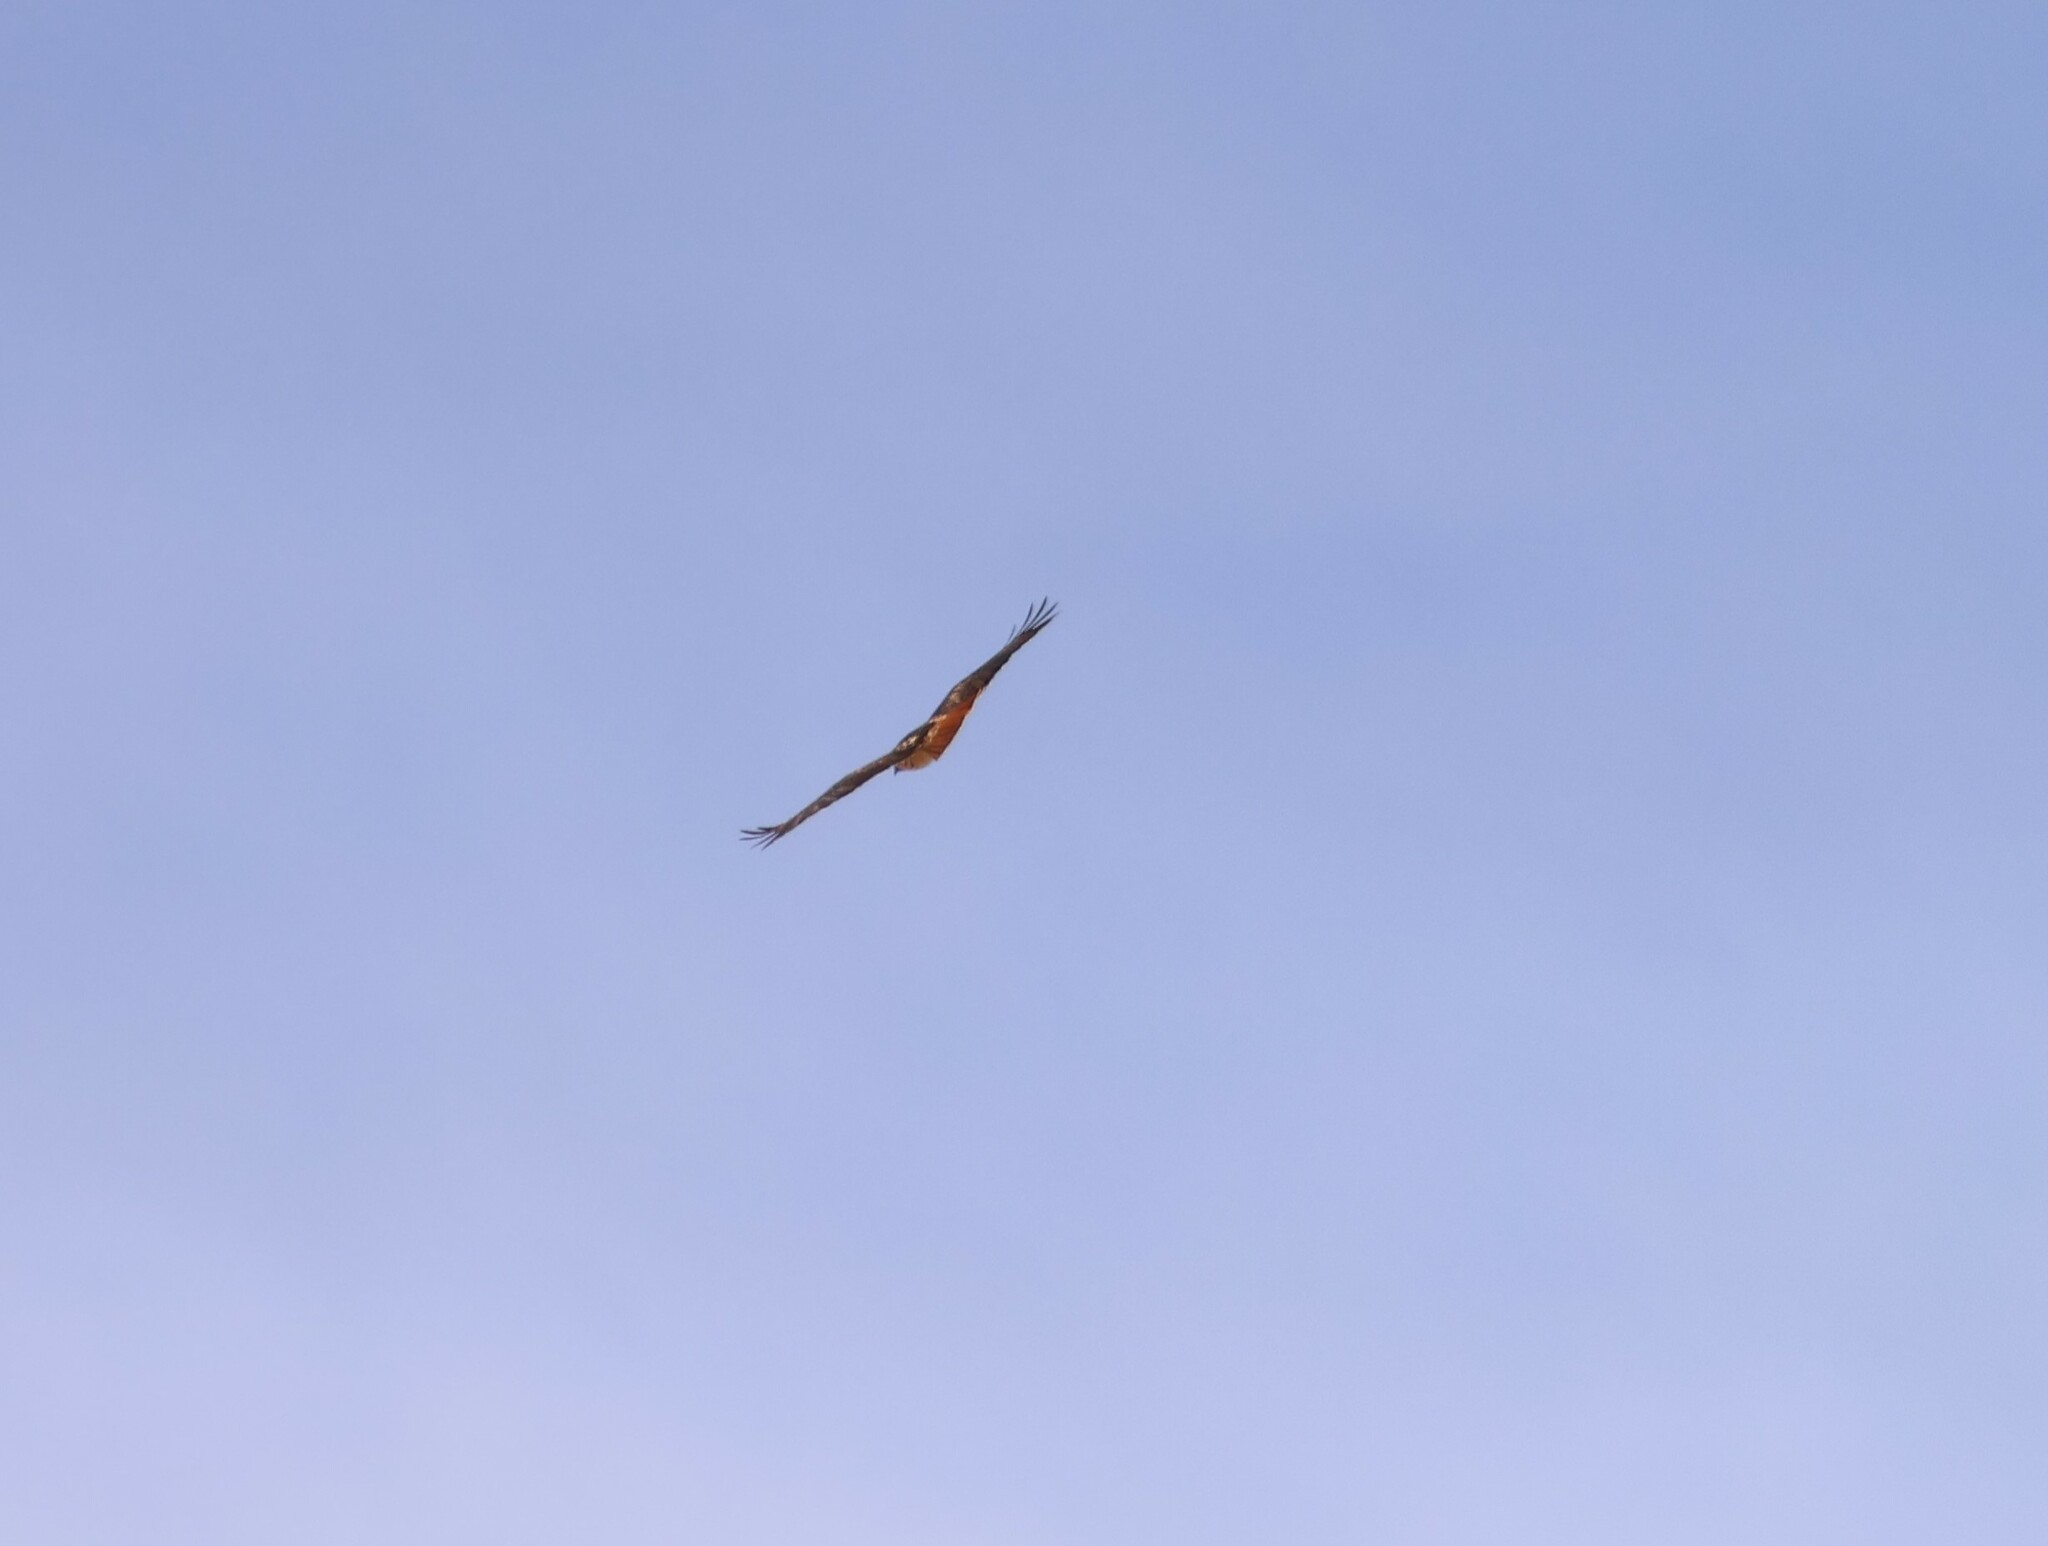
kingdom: Animalia
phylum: Chordata
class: Aves
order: Accipitriformes
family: Accipitridae
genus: Buteo
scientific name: Buteo jamaicensis
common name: Red-tailed hawk
